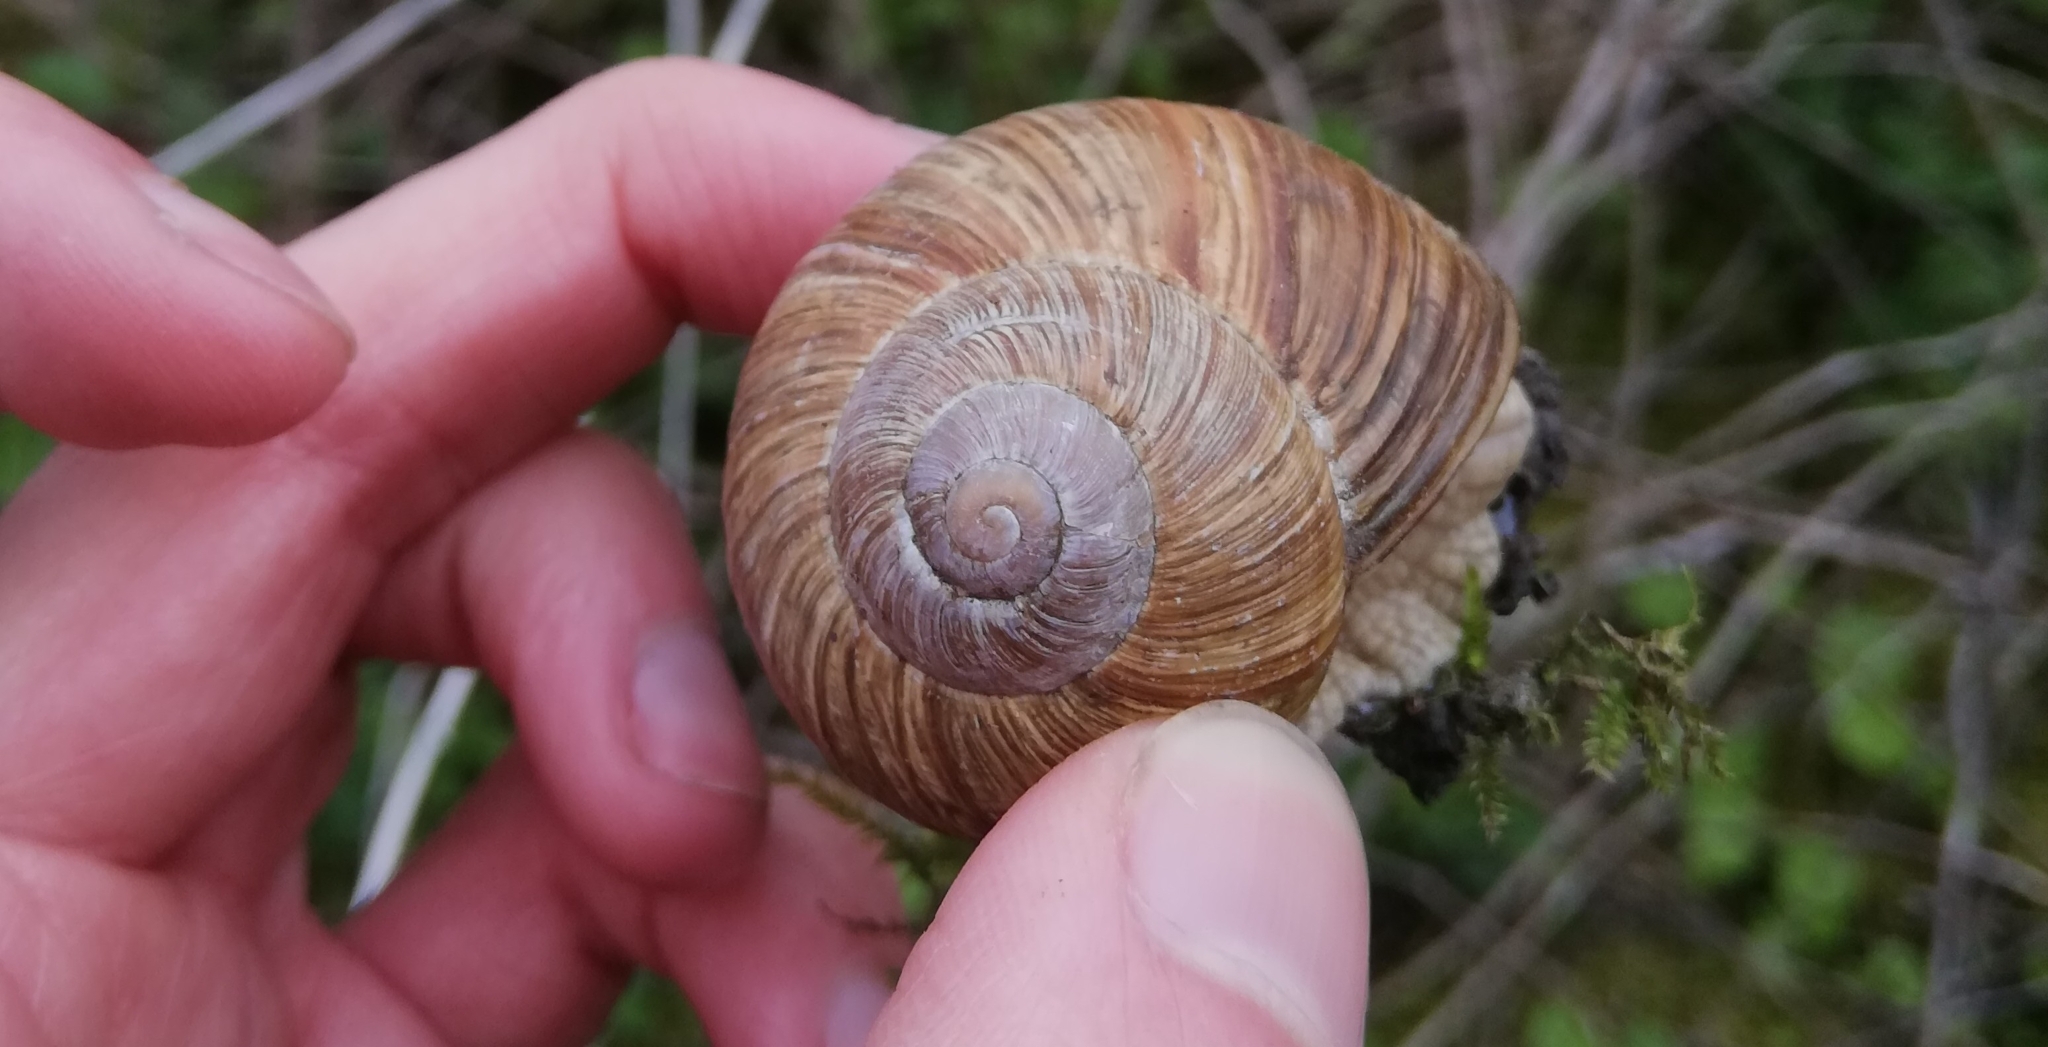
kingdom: Animalia
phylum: Mollusca
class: Gastropoda
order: Stylommatophora
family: Helicidae
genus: Helix
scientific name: Helix pomatia
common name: Roman snail
